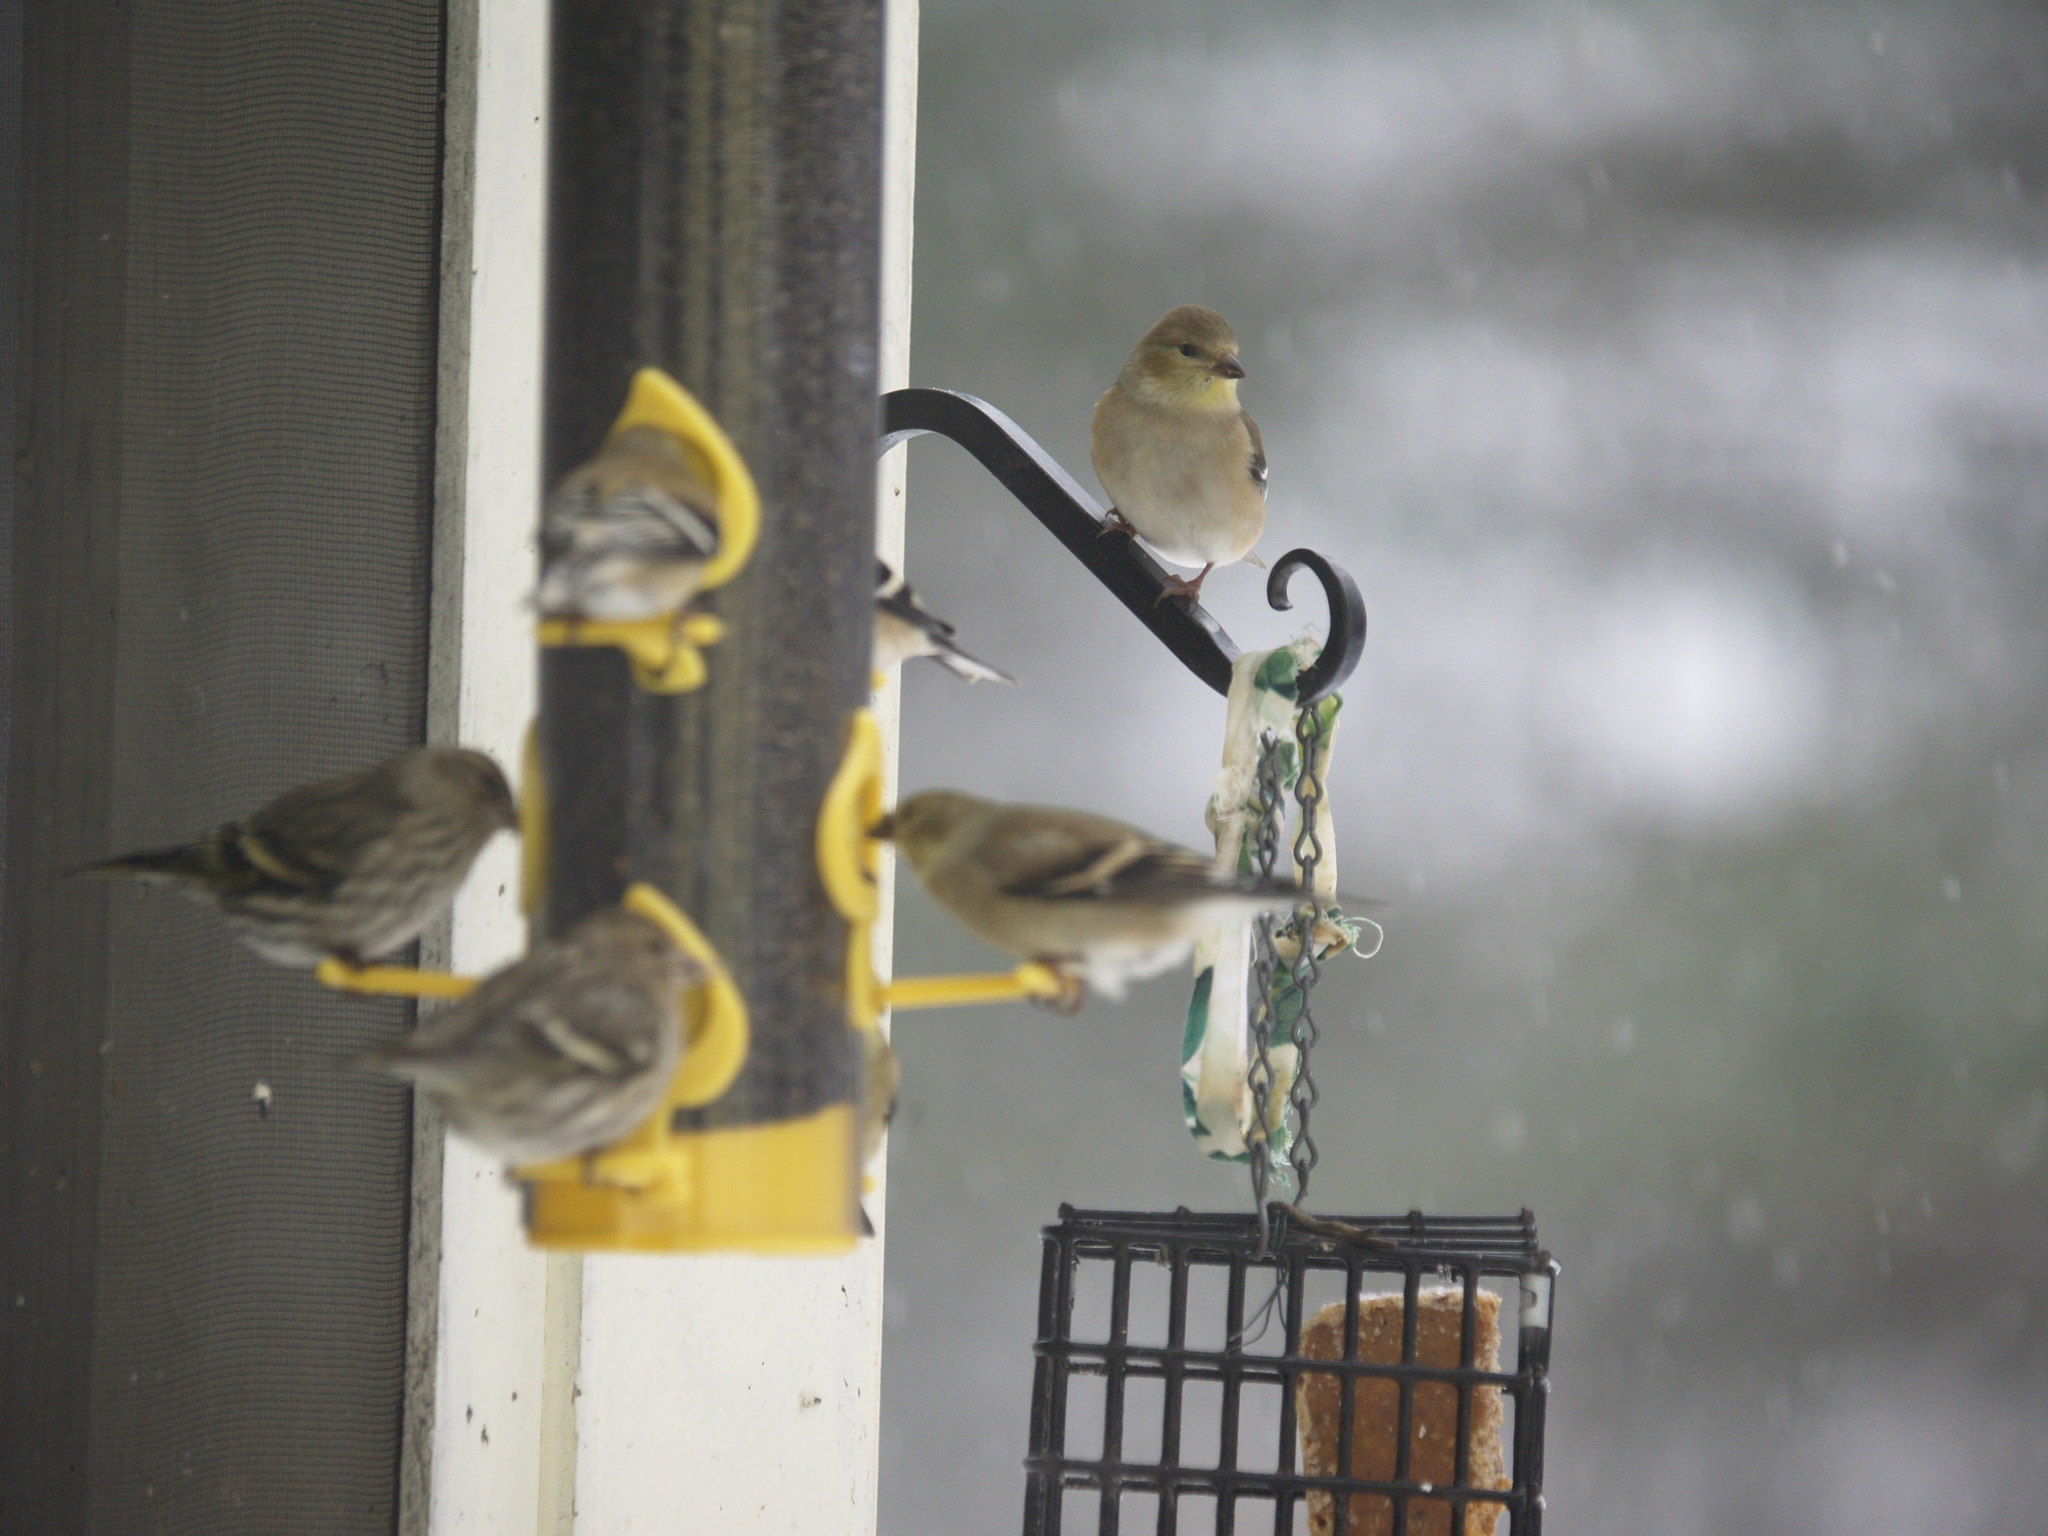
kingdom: Animalia
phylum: Chordata
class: Aves
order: Passeriformes
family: Fringillidae
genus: Spinus
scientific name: Spinus tristis
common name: American goldfinch
